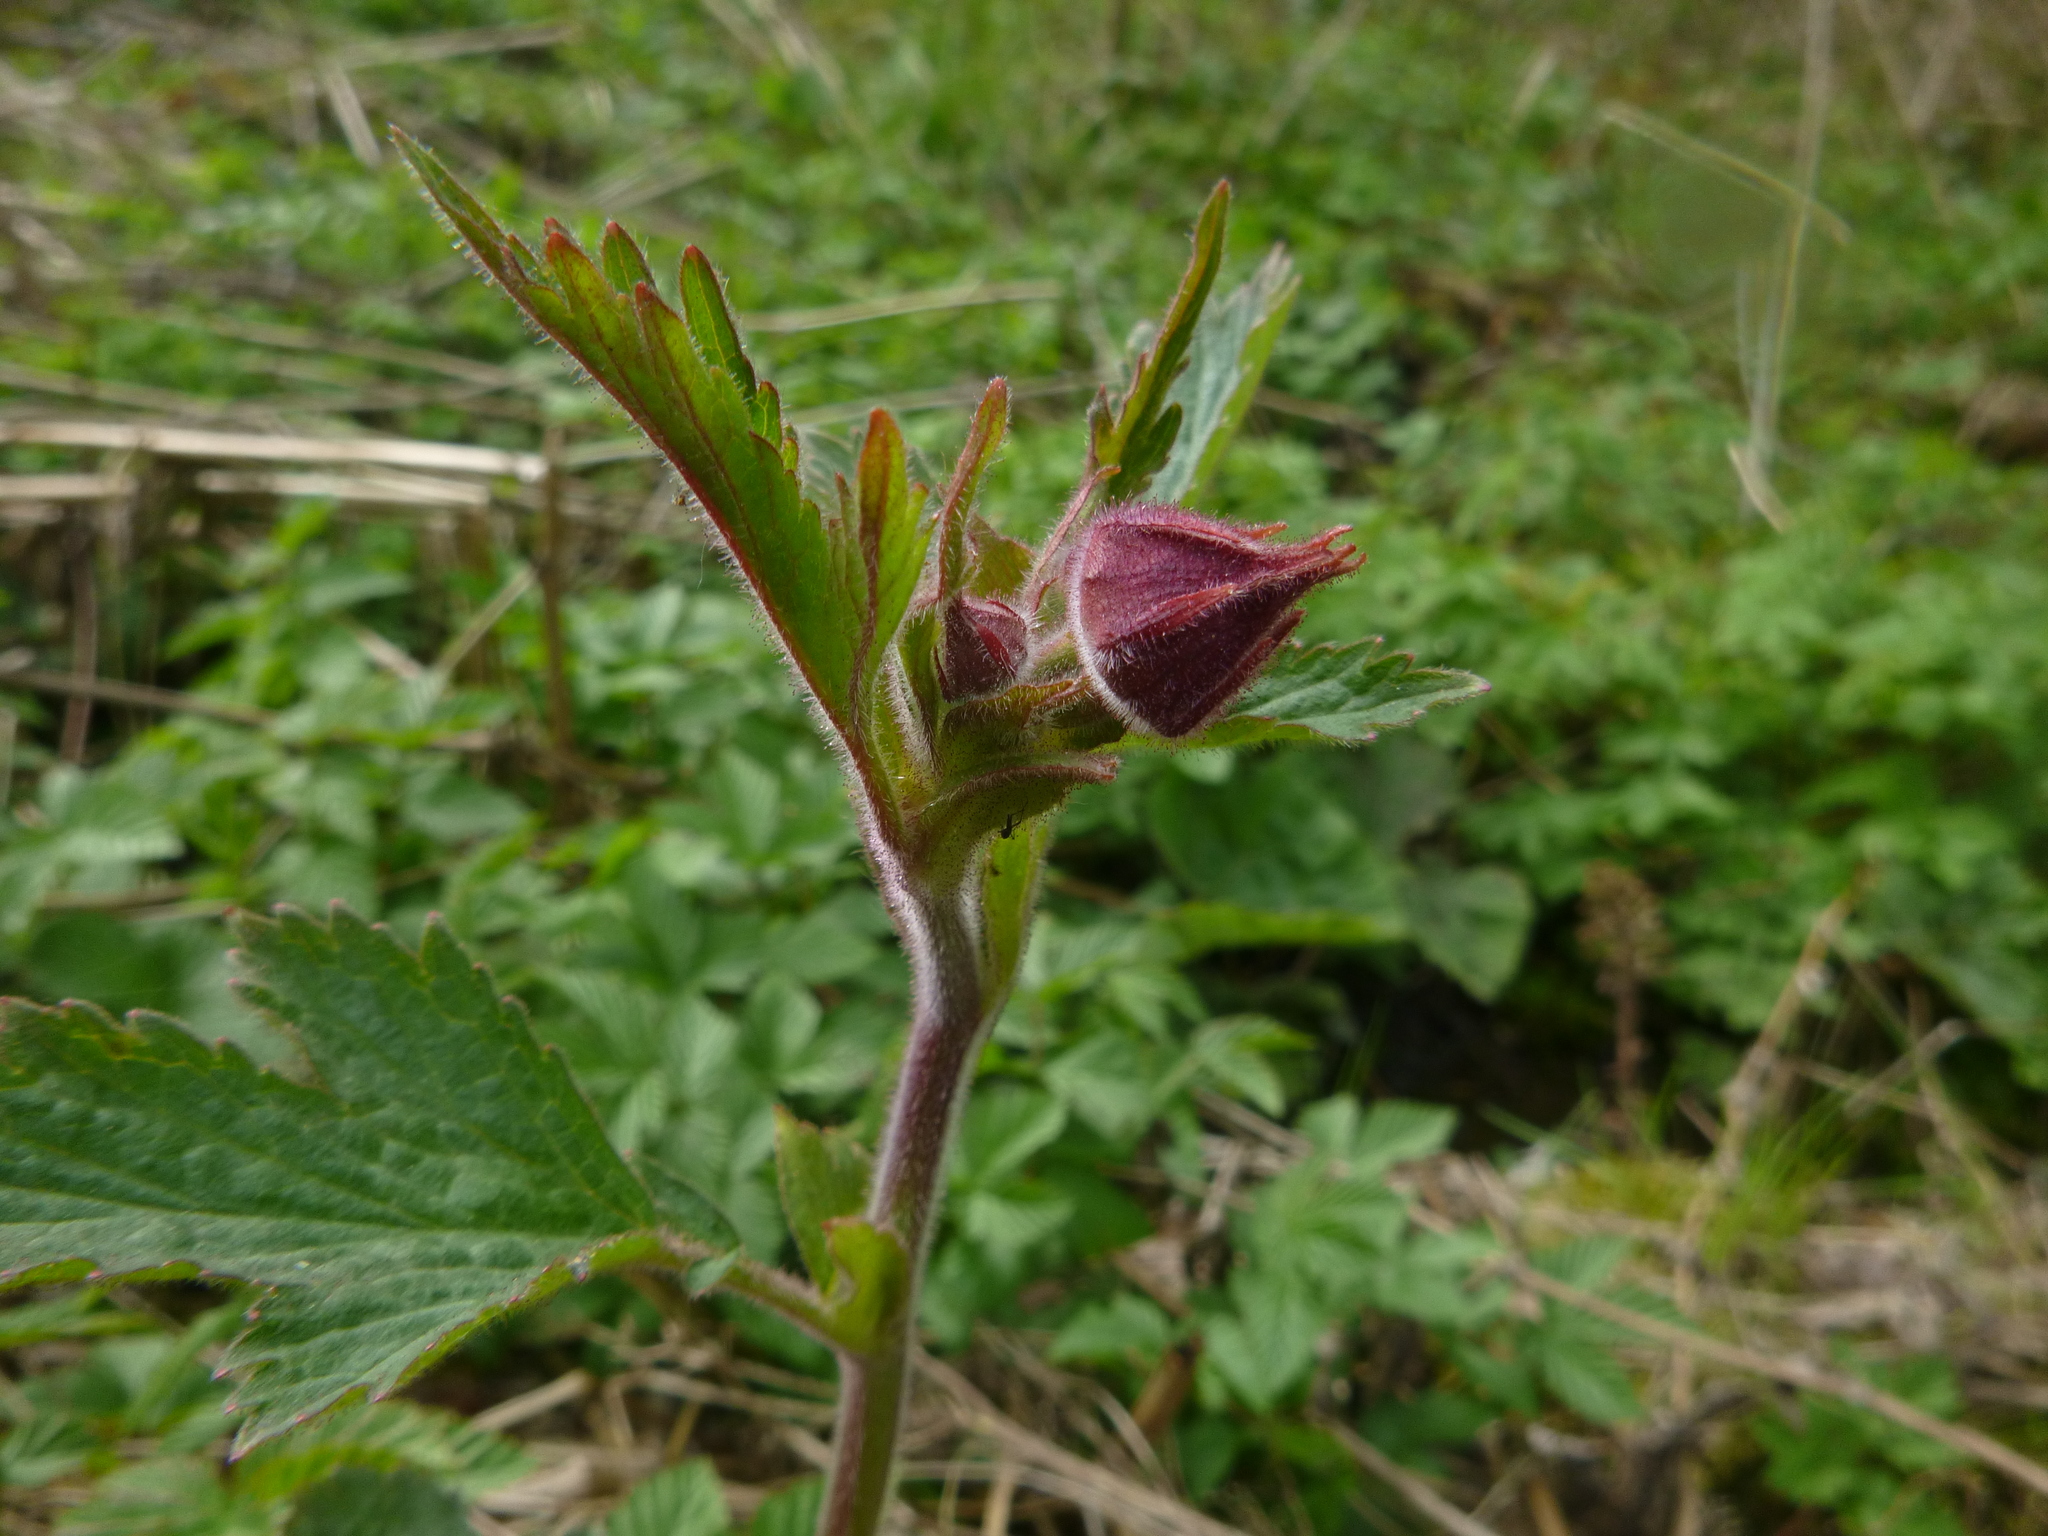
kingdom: Plantae
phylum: Tracheophyta
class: Magnoliopsida
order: Rosales
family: Rosaceae
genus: Geum
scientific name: Geum rivale
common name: Water avens
